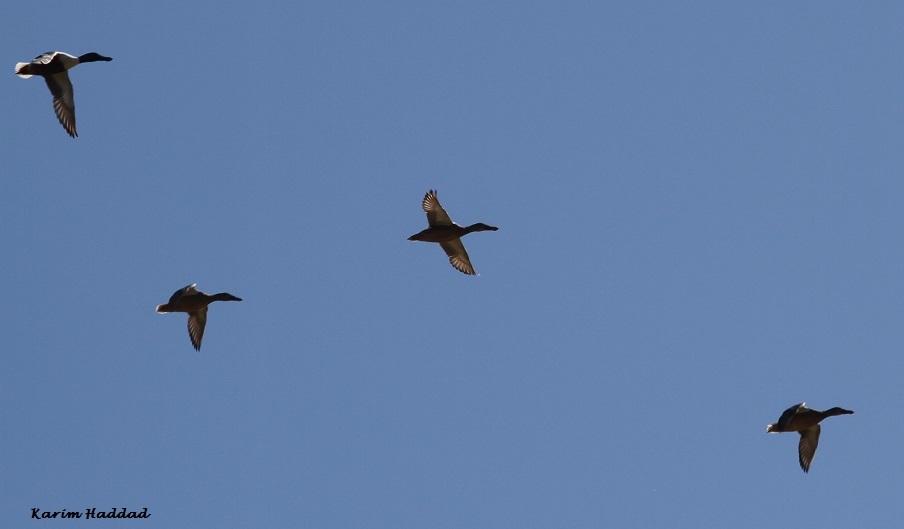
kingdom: Animalia
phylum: Chordata
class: Aves
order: Anseriformes
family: Anatidae
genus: Spatula
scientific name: Spatula clypeata
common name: Northern shoveler
